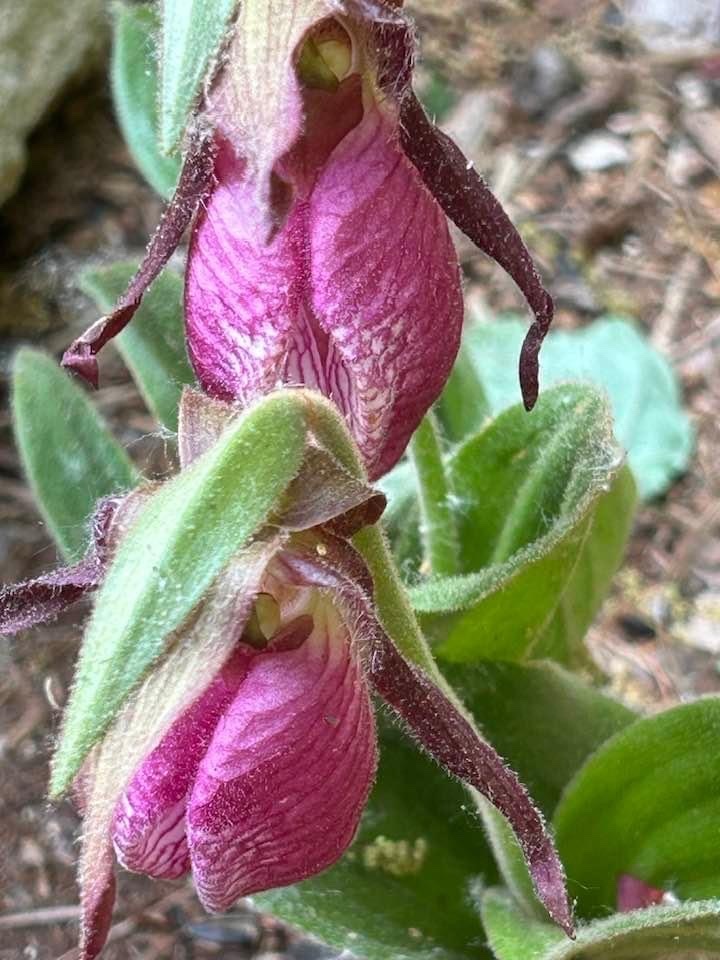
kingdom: Plantae
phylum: Tracheophyta
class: Liliopsida
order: Asparagales
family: Orchidaceae
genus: Cypripedium
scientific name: Cypripedium acaule
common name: Pink lady's-slipper
